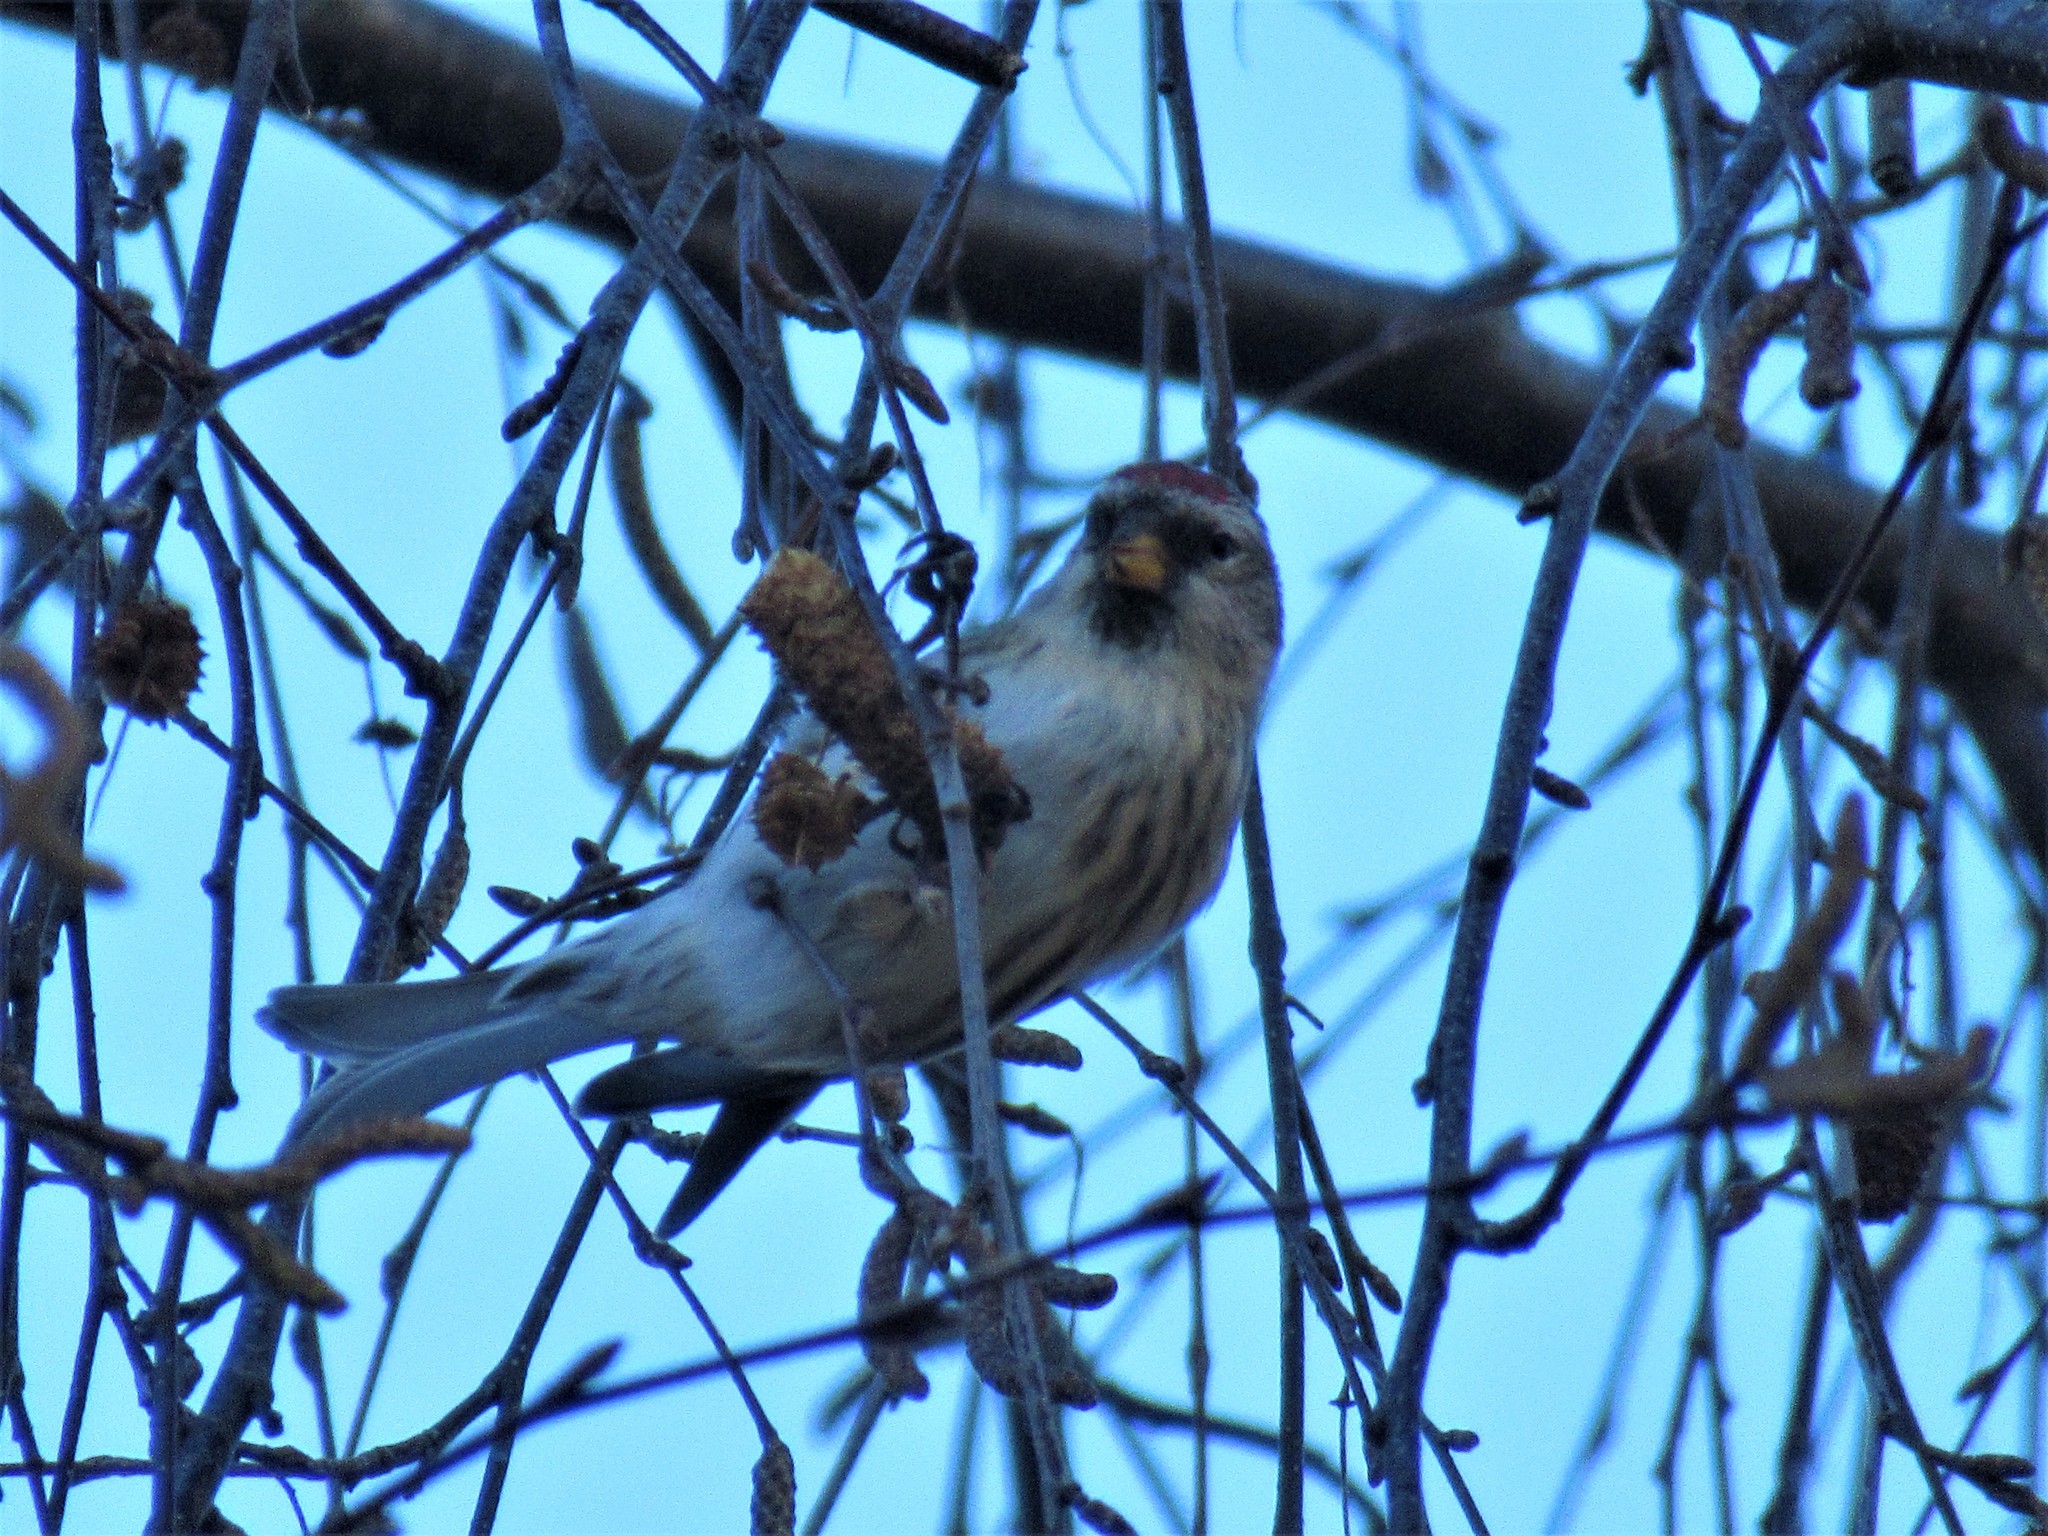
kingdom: Animalia
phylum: Chordata
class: Aves
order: Passeriformes
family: Fringillidae
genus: Acanthis
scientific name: Acanthis flammea
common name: Common redpoll
